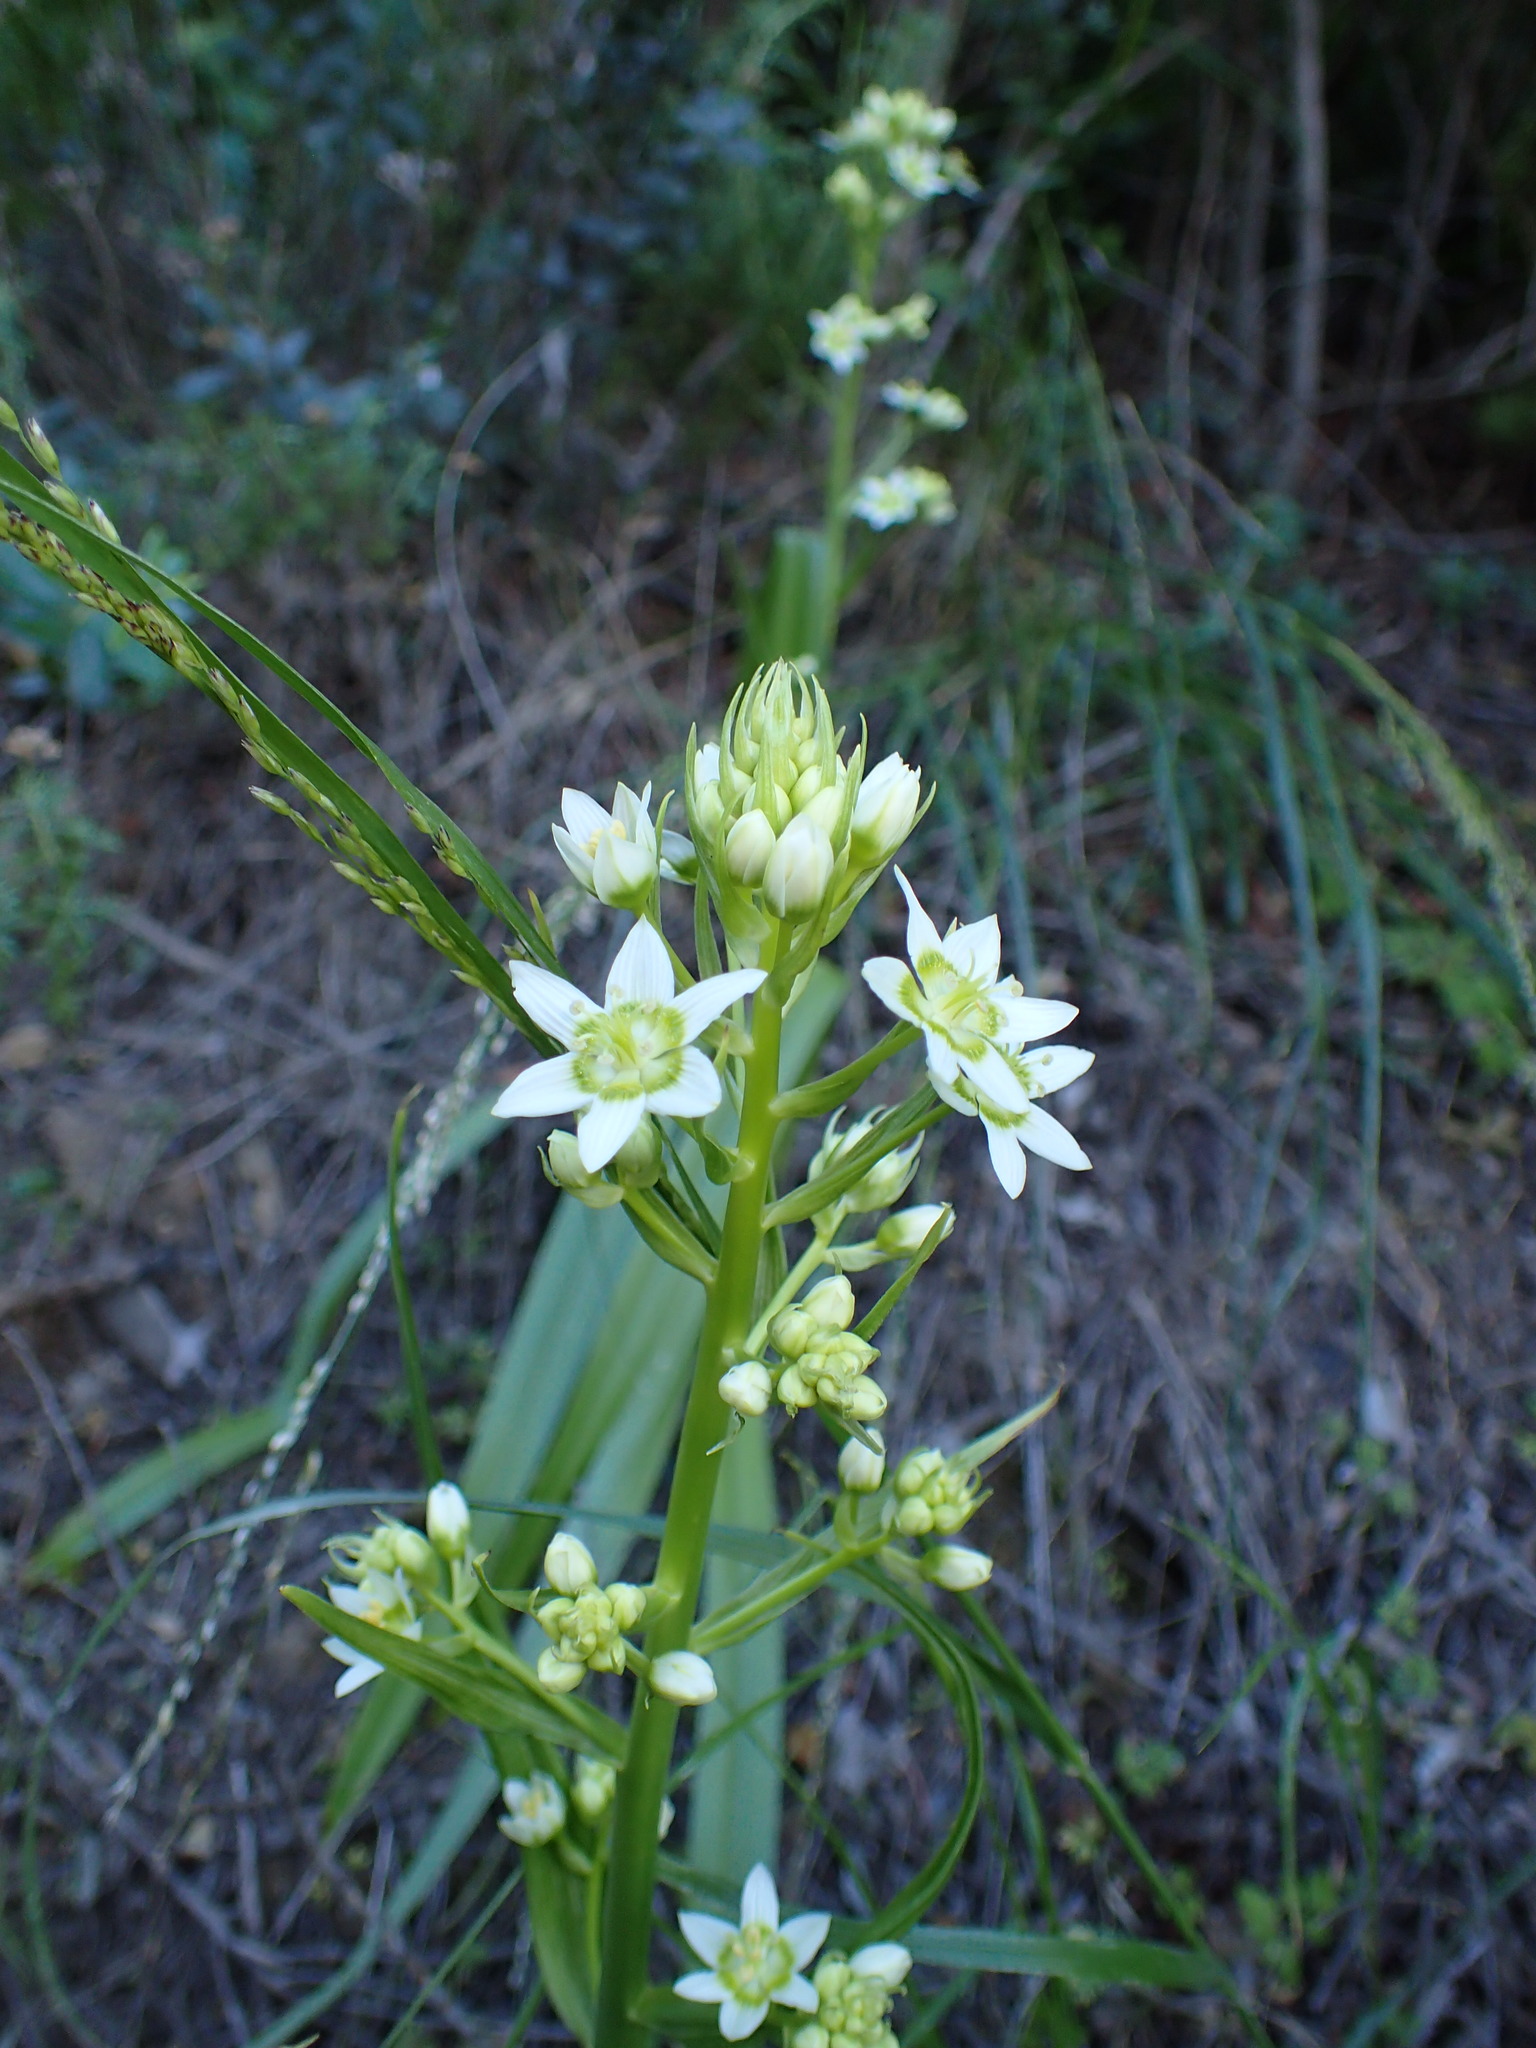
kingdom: Plantae
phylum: Tracheophyta
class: Liliopsida
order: Liliales
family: Melanthiaceae
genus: Toxicoscordion
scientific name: Toxicoscordion fremontii
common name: Fremont's death camas
